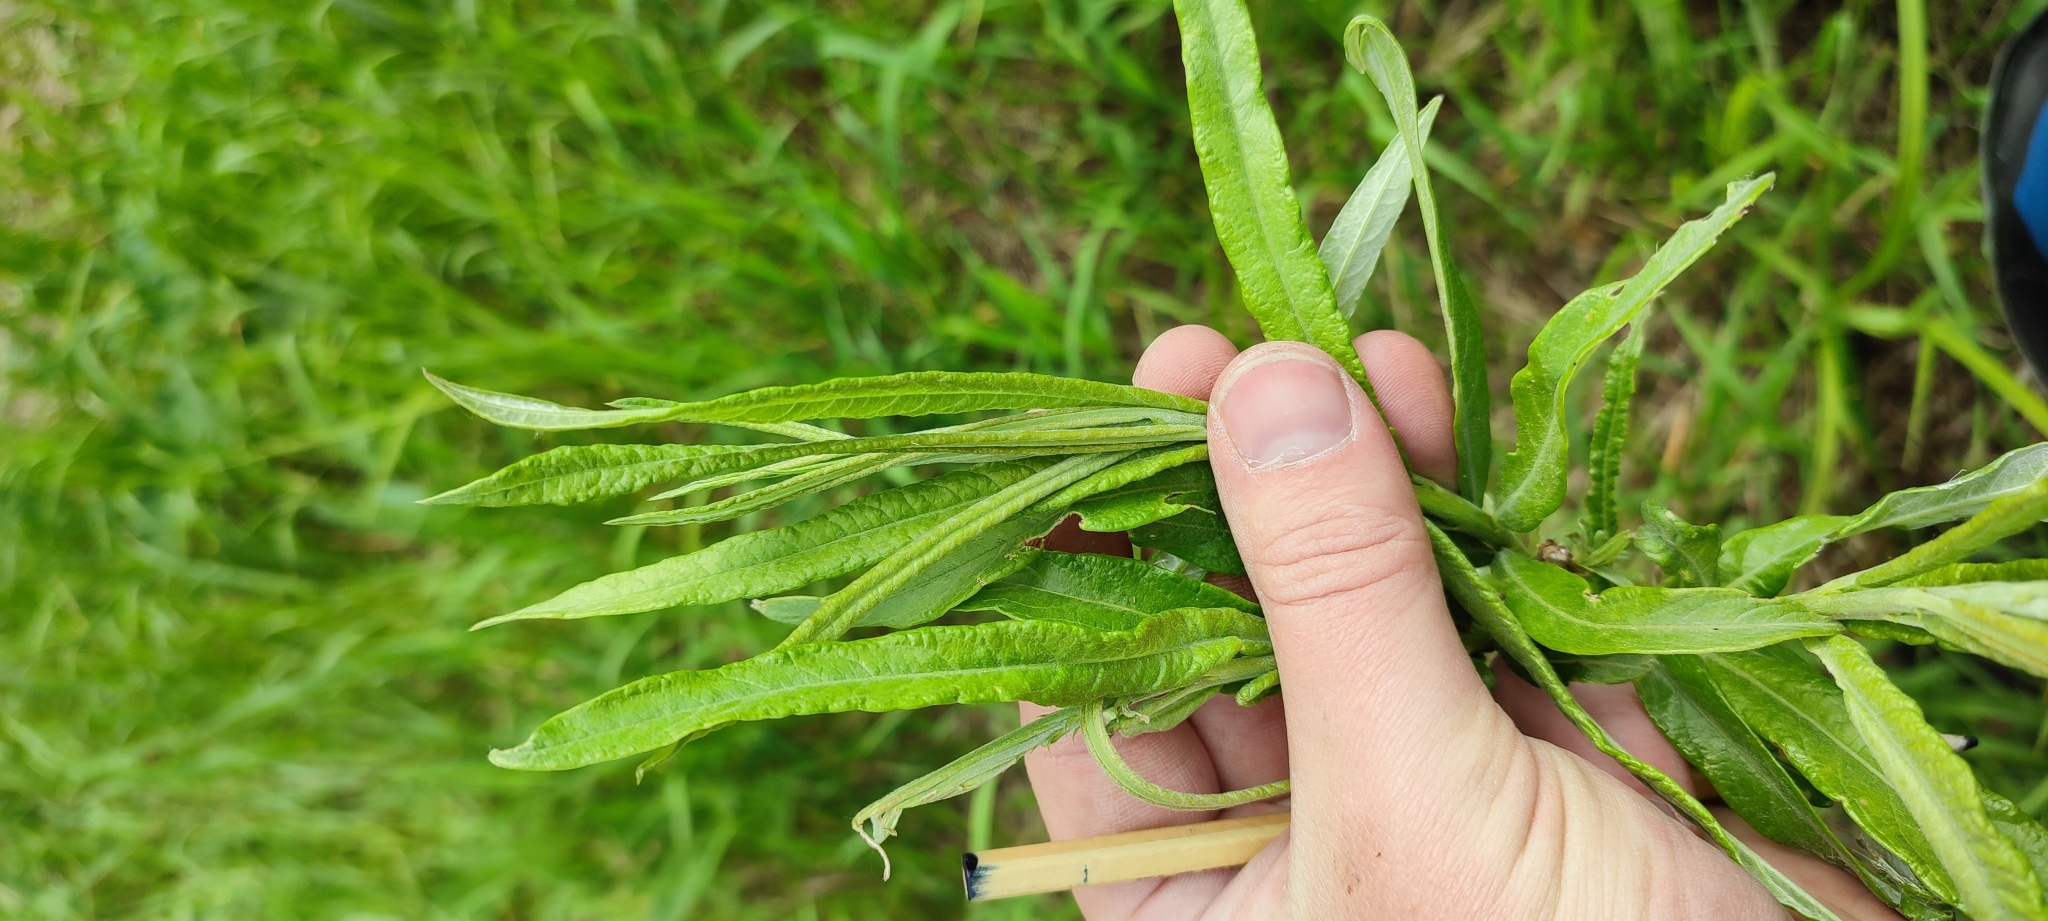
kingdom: Plantae
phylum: Tracheophyta
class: Magnoliopsida
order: Malpighiales
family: Salicaceae
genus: Salix
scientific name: Salix viminalis
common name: Osier
